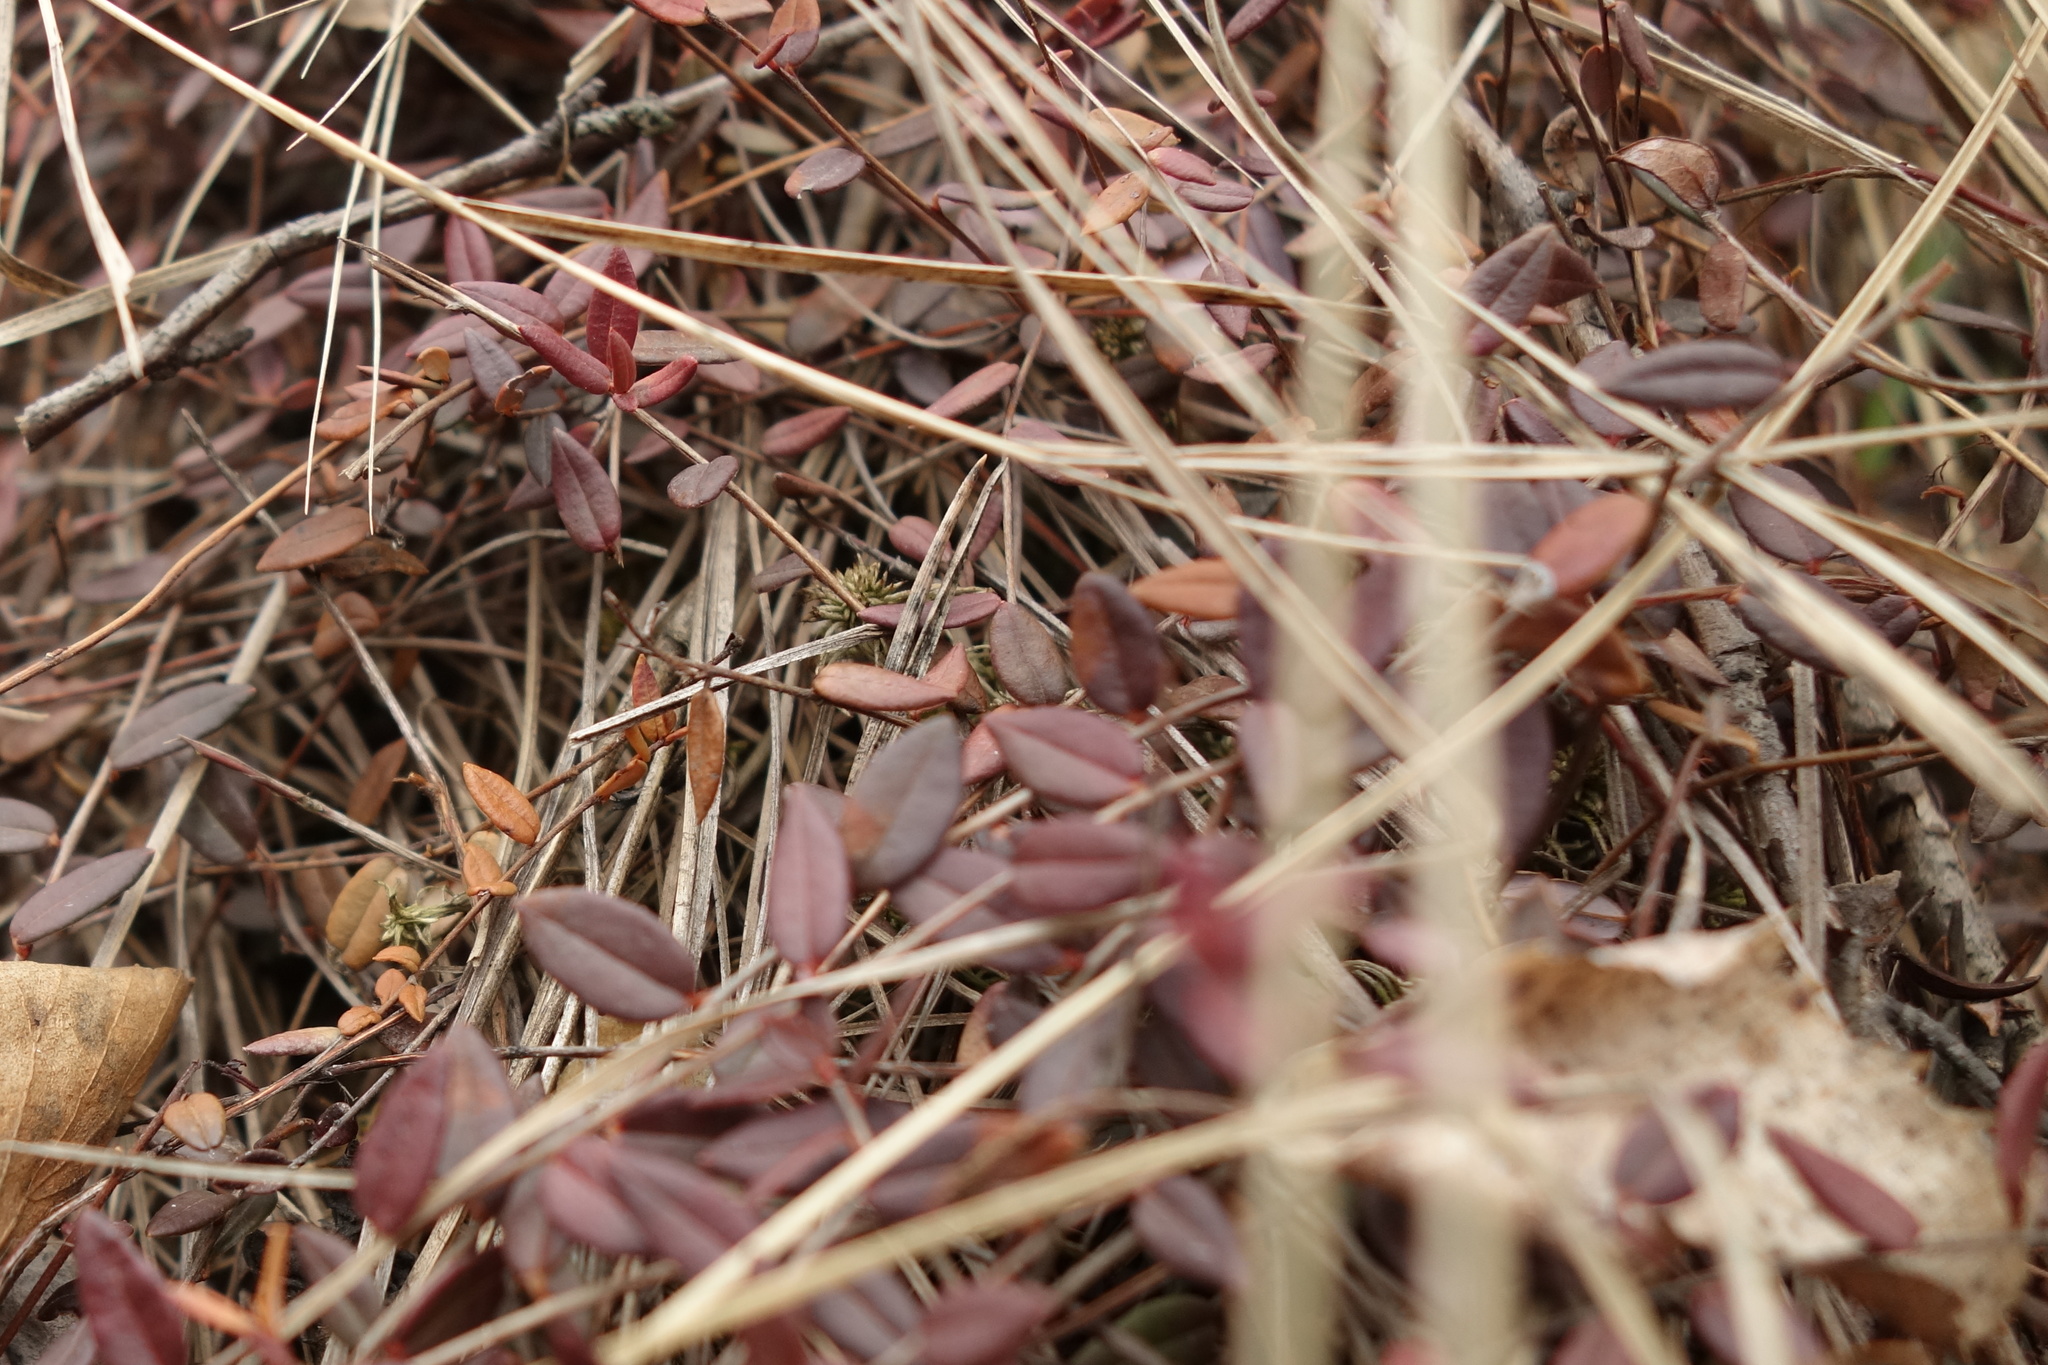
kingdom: Plantae
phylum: Tracheophyta
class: Magnoliopsida
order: Ericales
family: Ericaceae
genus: Vaccinium
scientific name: Vaccinium oxycoccos
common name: Cranberry
